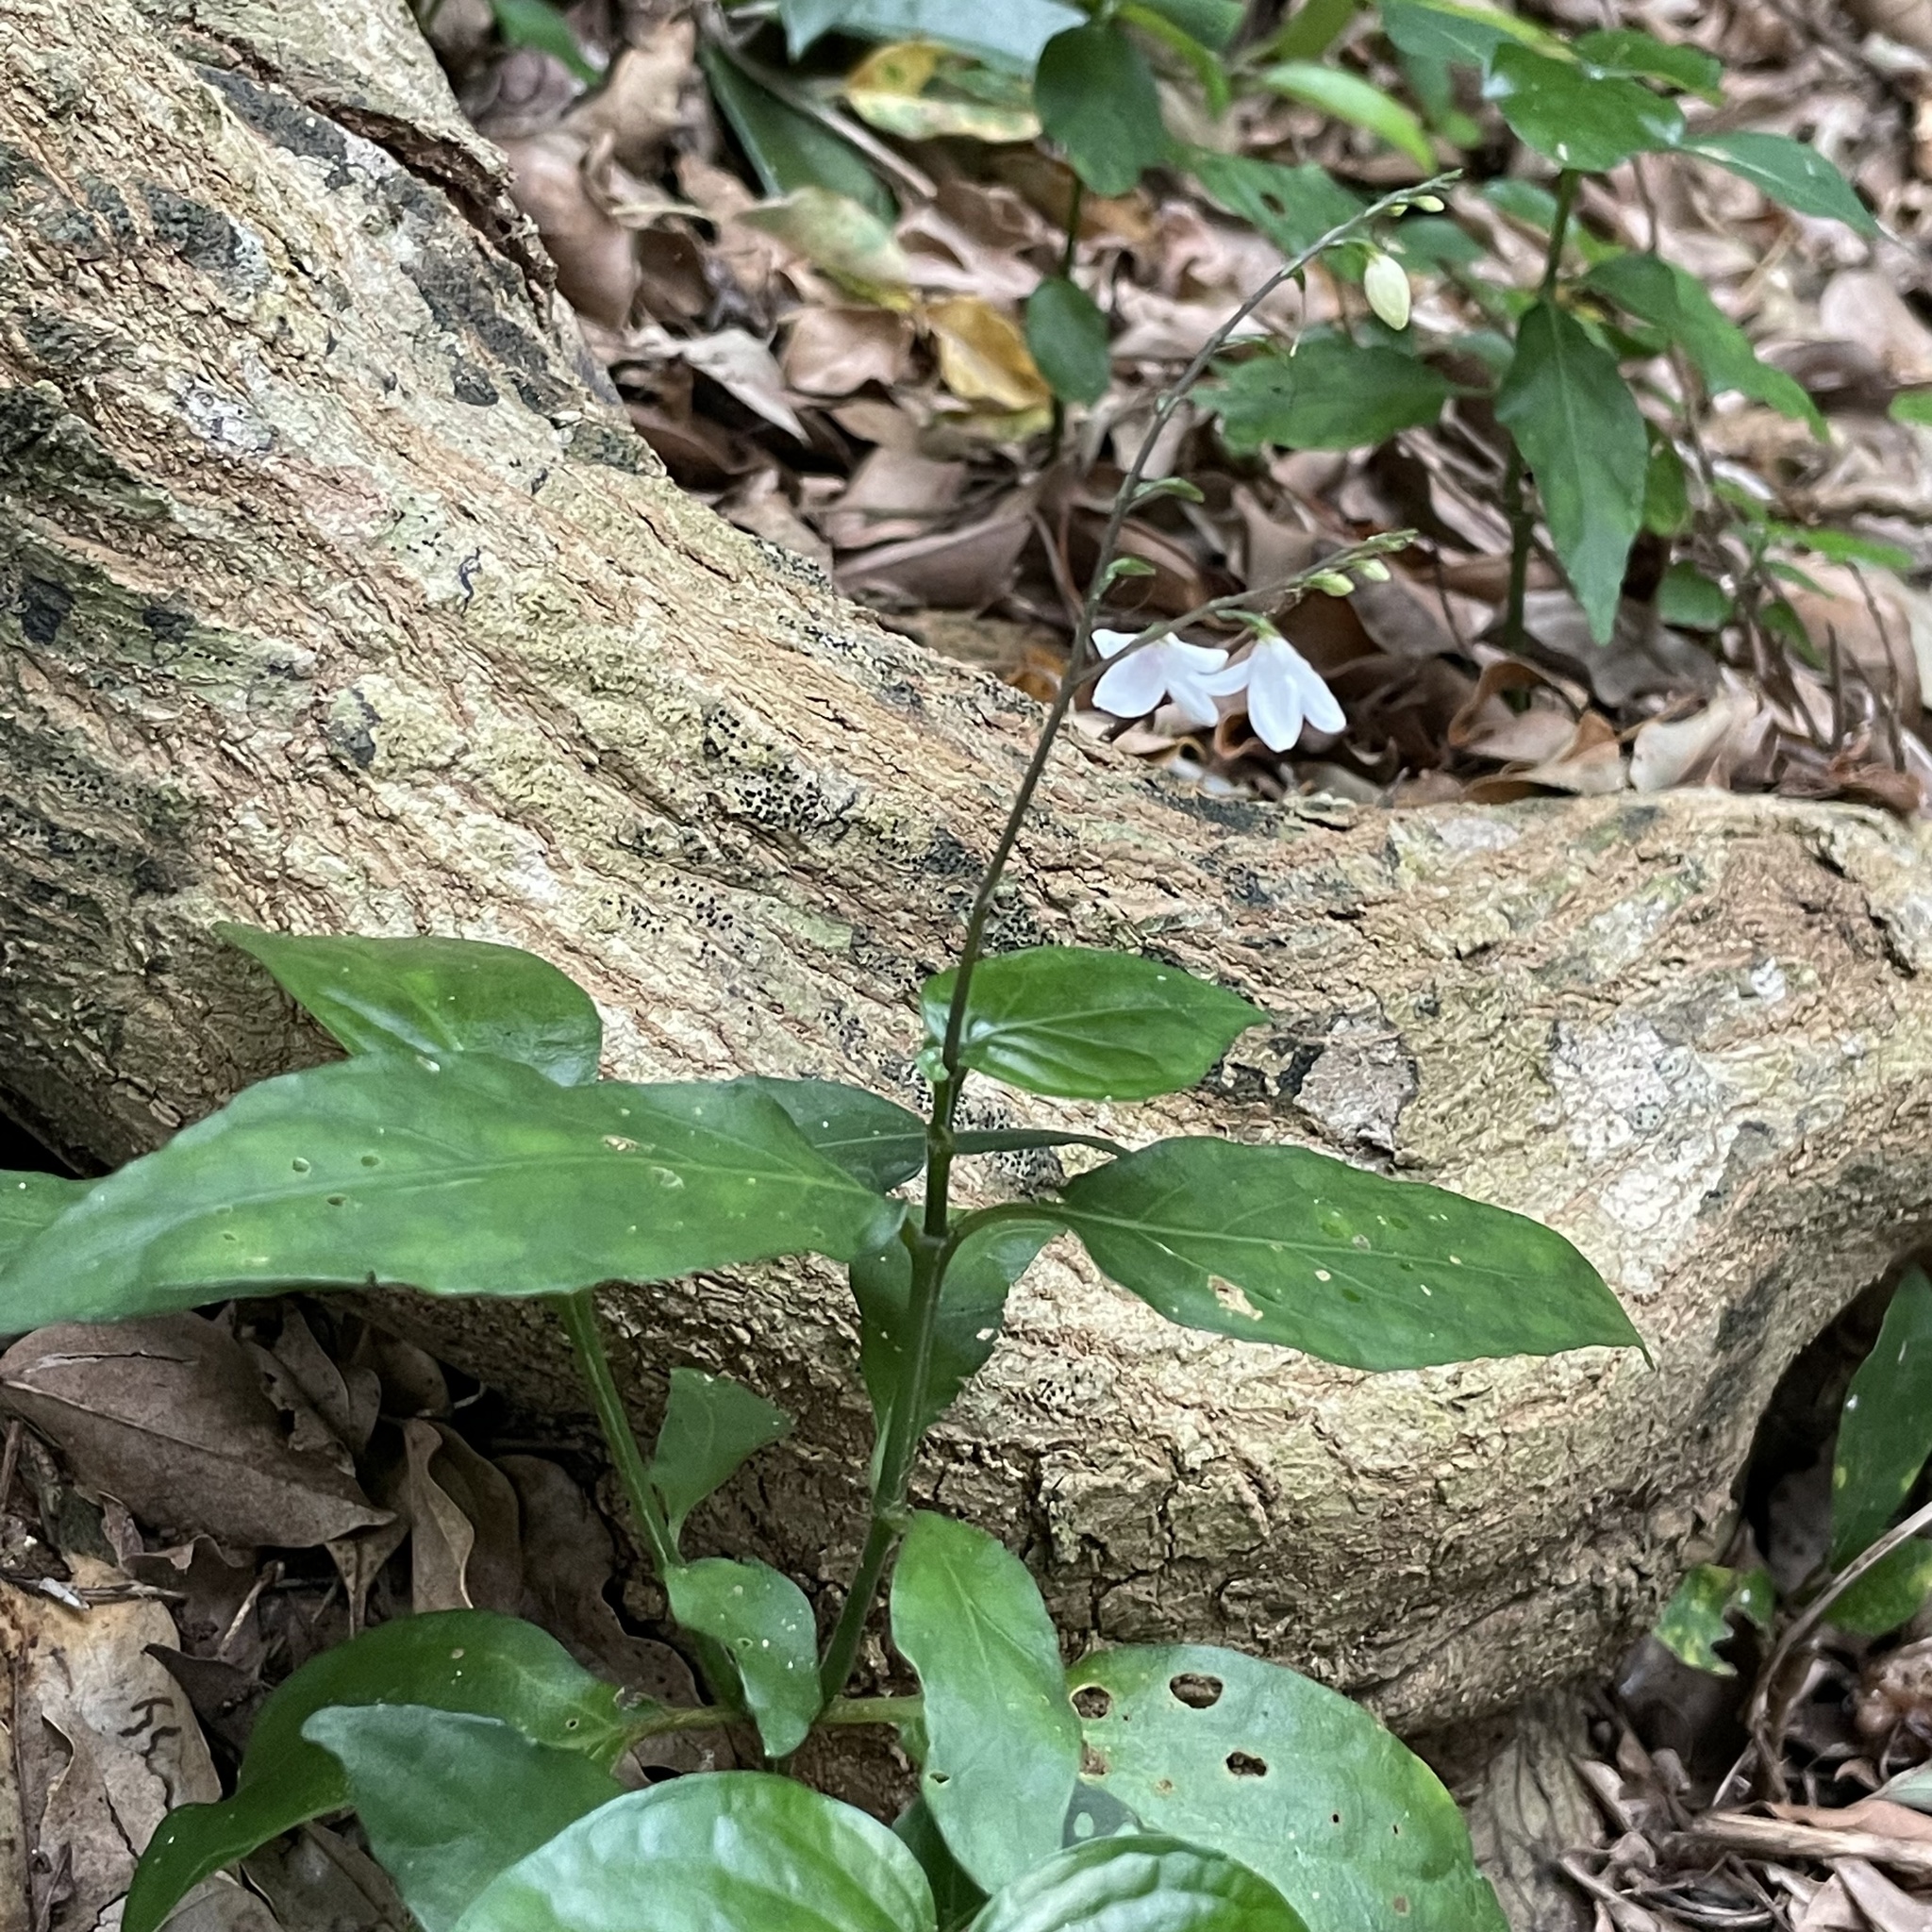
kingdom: Plantae
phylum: Tracheophyta
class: Magnoliopsida
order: Lamiales
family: Acanthaceae
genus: Codonacanthus
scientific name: Codonacanthus pauciflorus
